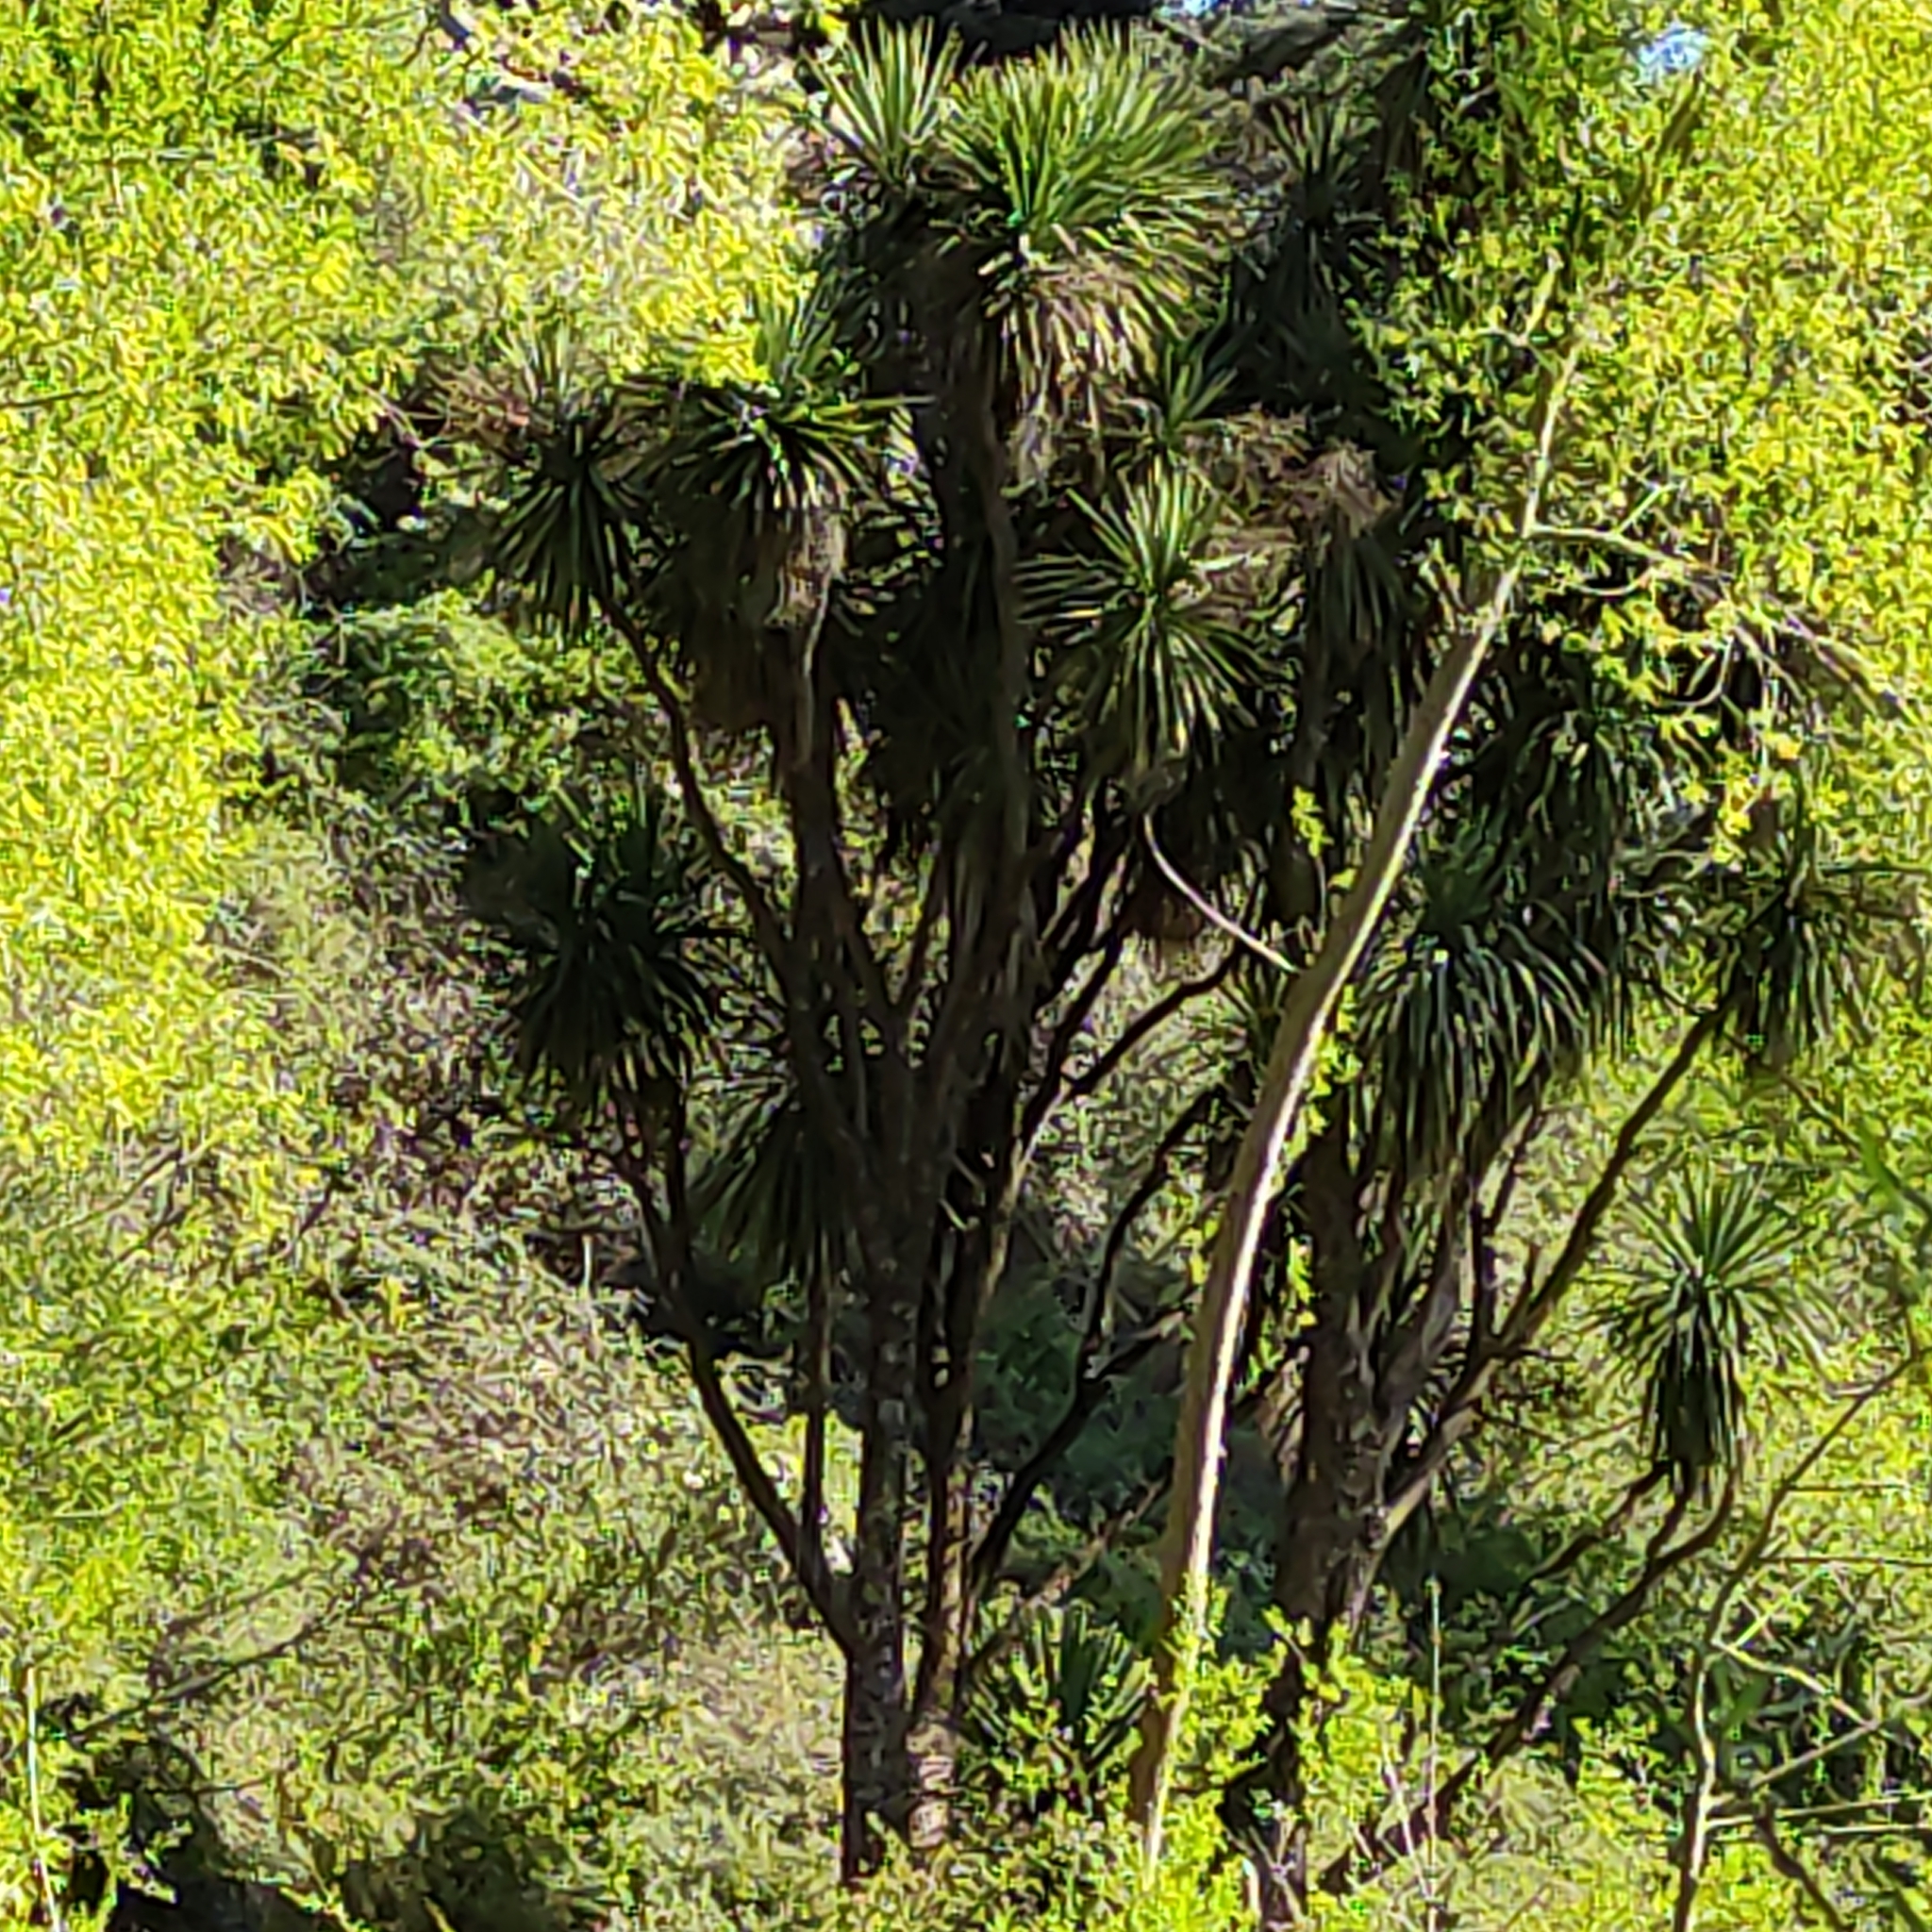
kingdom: Plantae
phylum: Tracheophyta
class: Liliopsida
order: Asparagales
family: Asparagaceae
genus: Cordyline
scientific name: Cordyline australis
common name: Cabbage-palm
